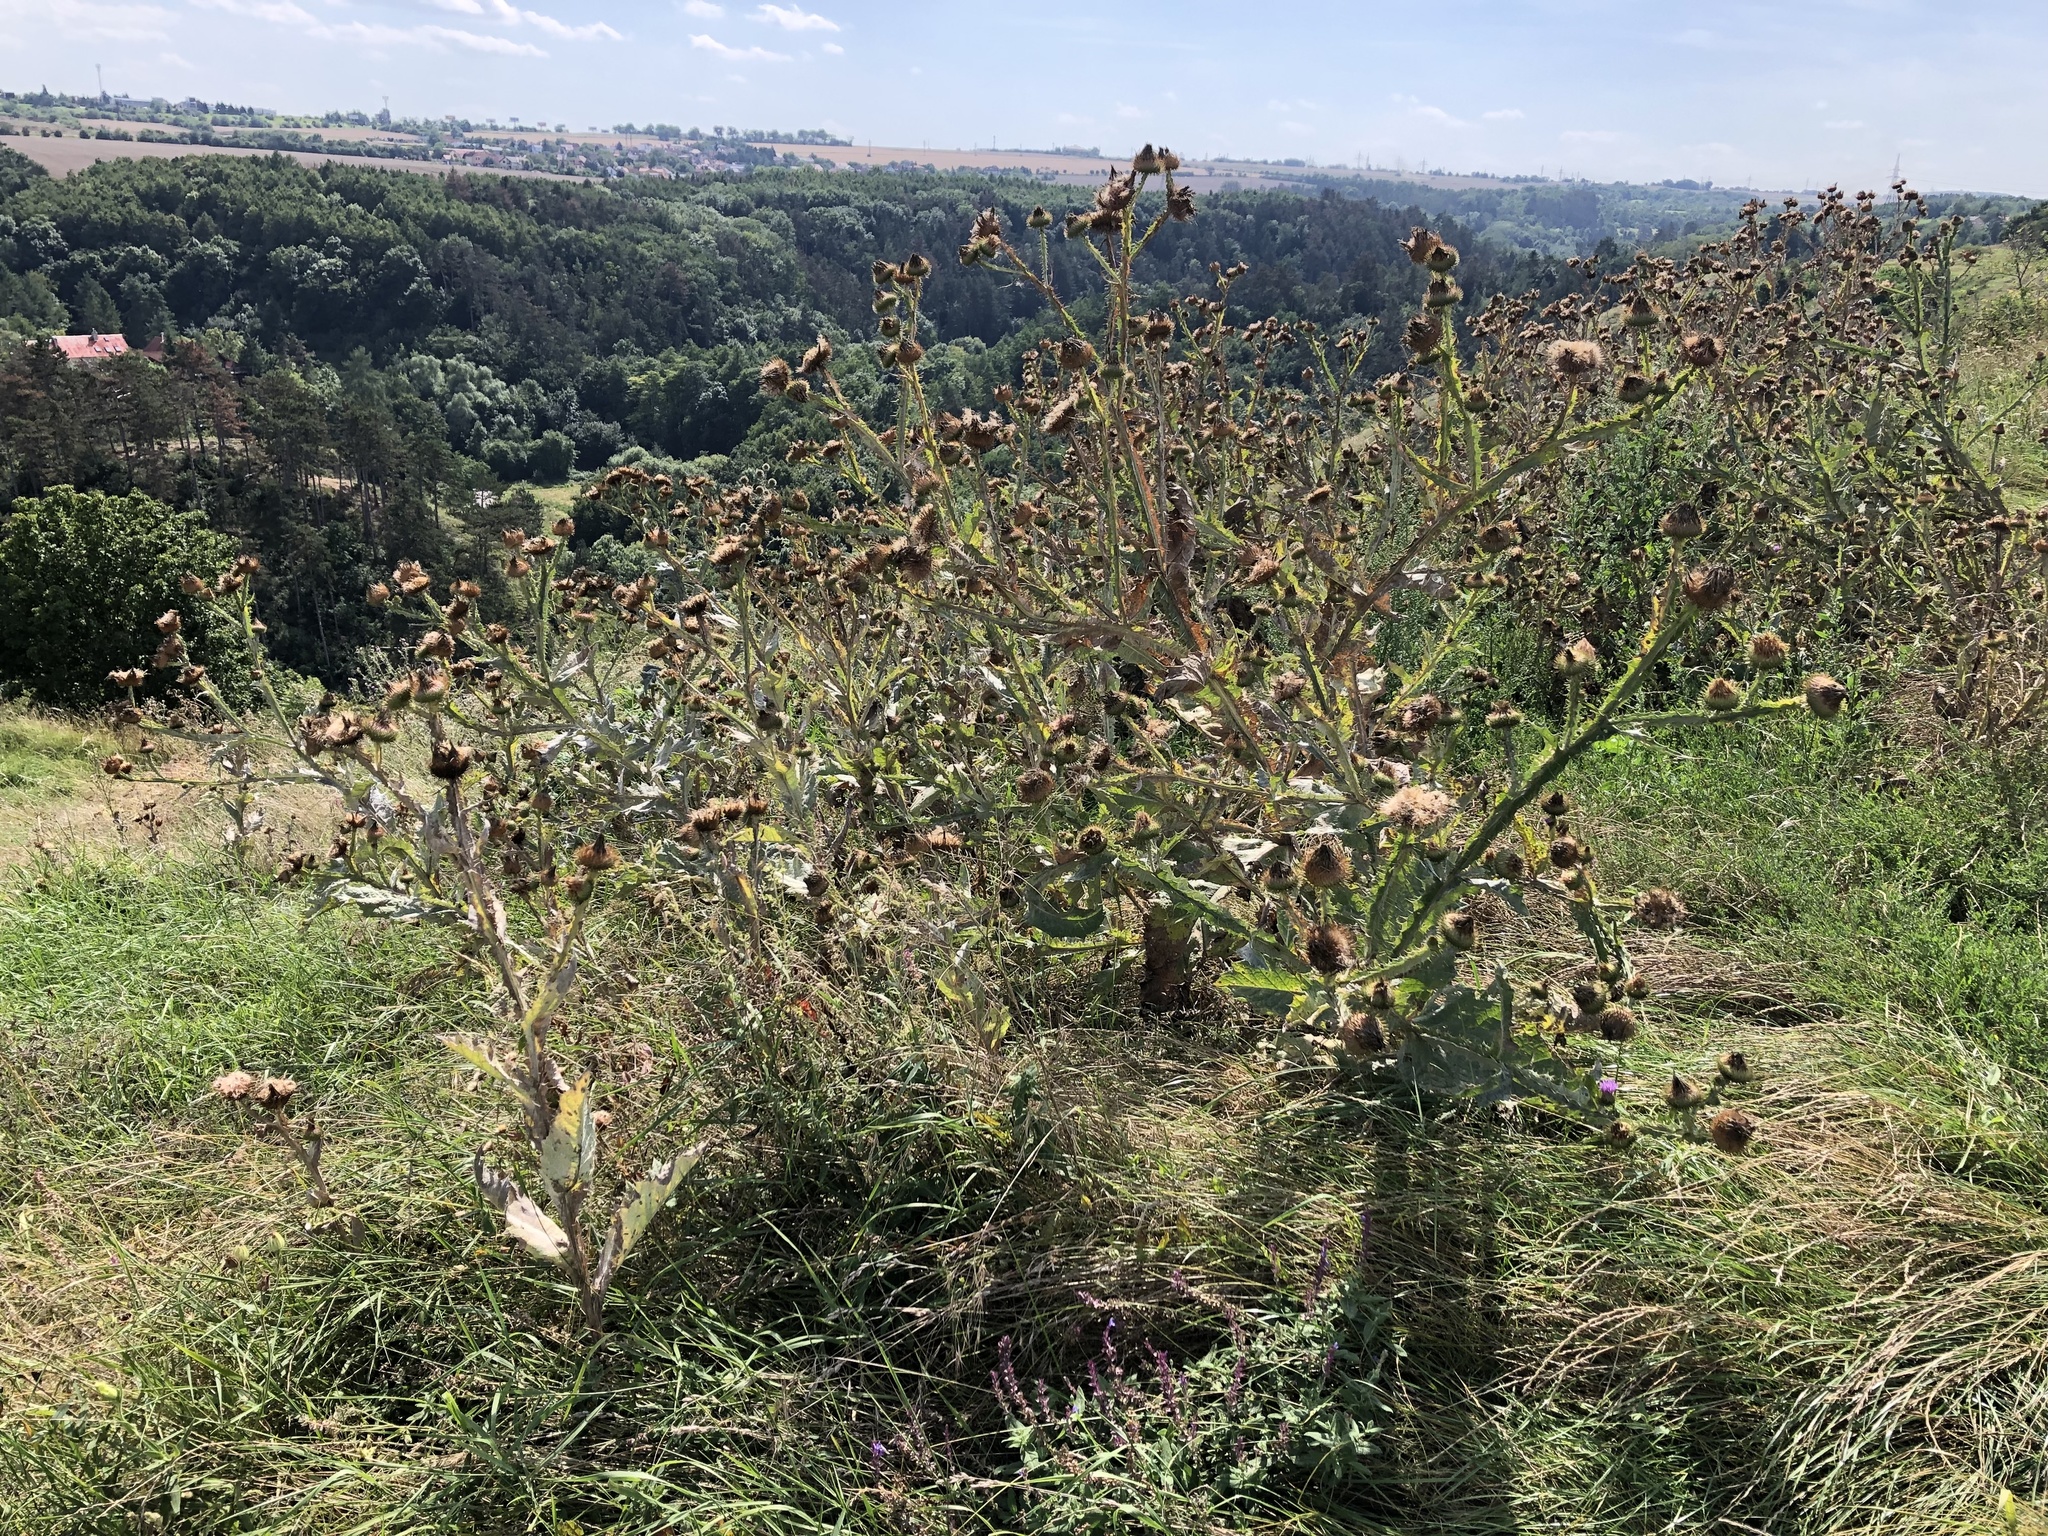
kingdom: Plantae
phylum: Tracheophyta
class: Magnoliopsida
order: Asterales
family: Asteraceae
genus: Onopordum
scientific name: Onopordum acanthium
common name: Scotch thistle
